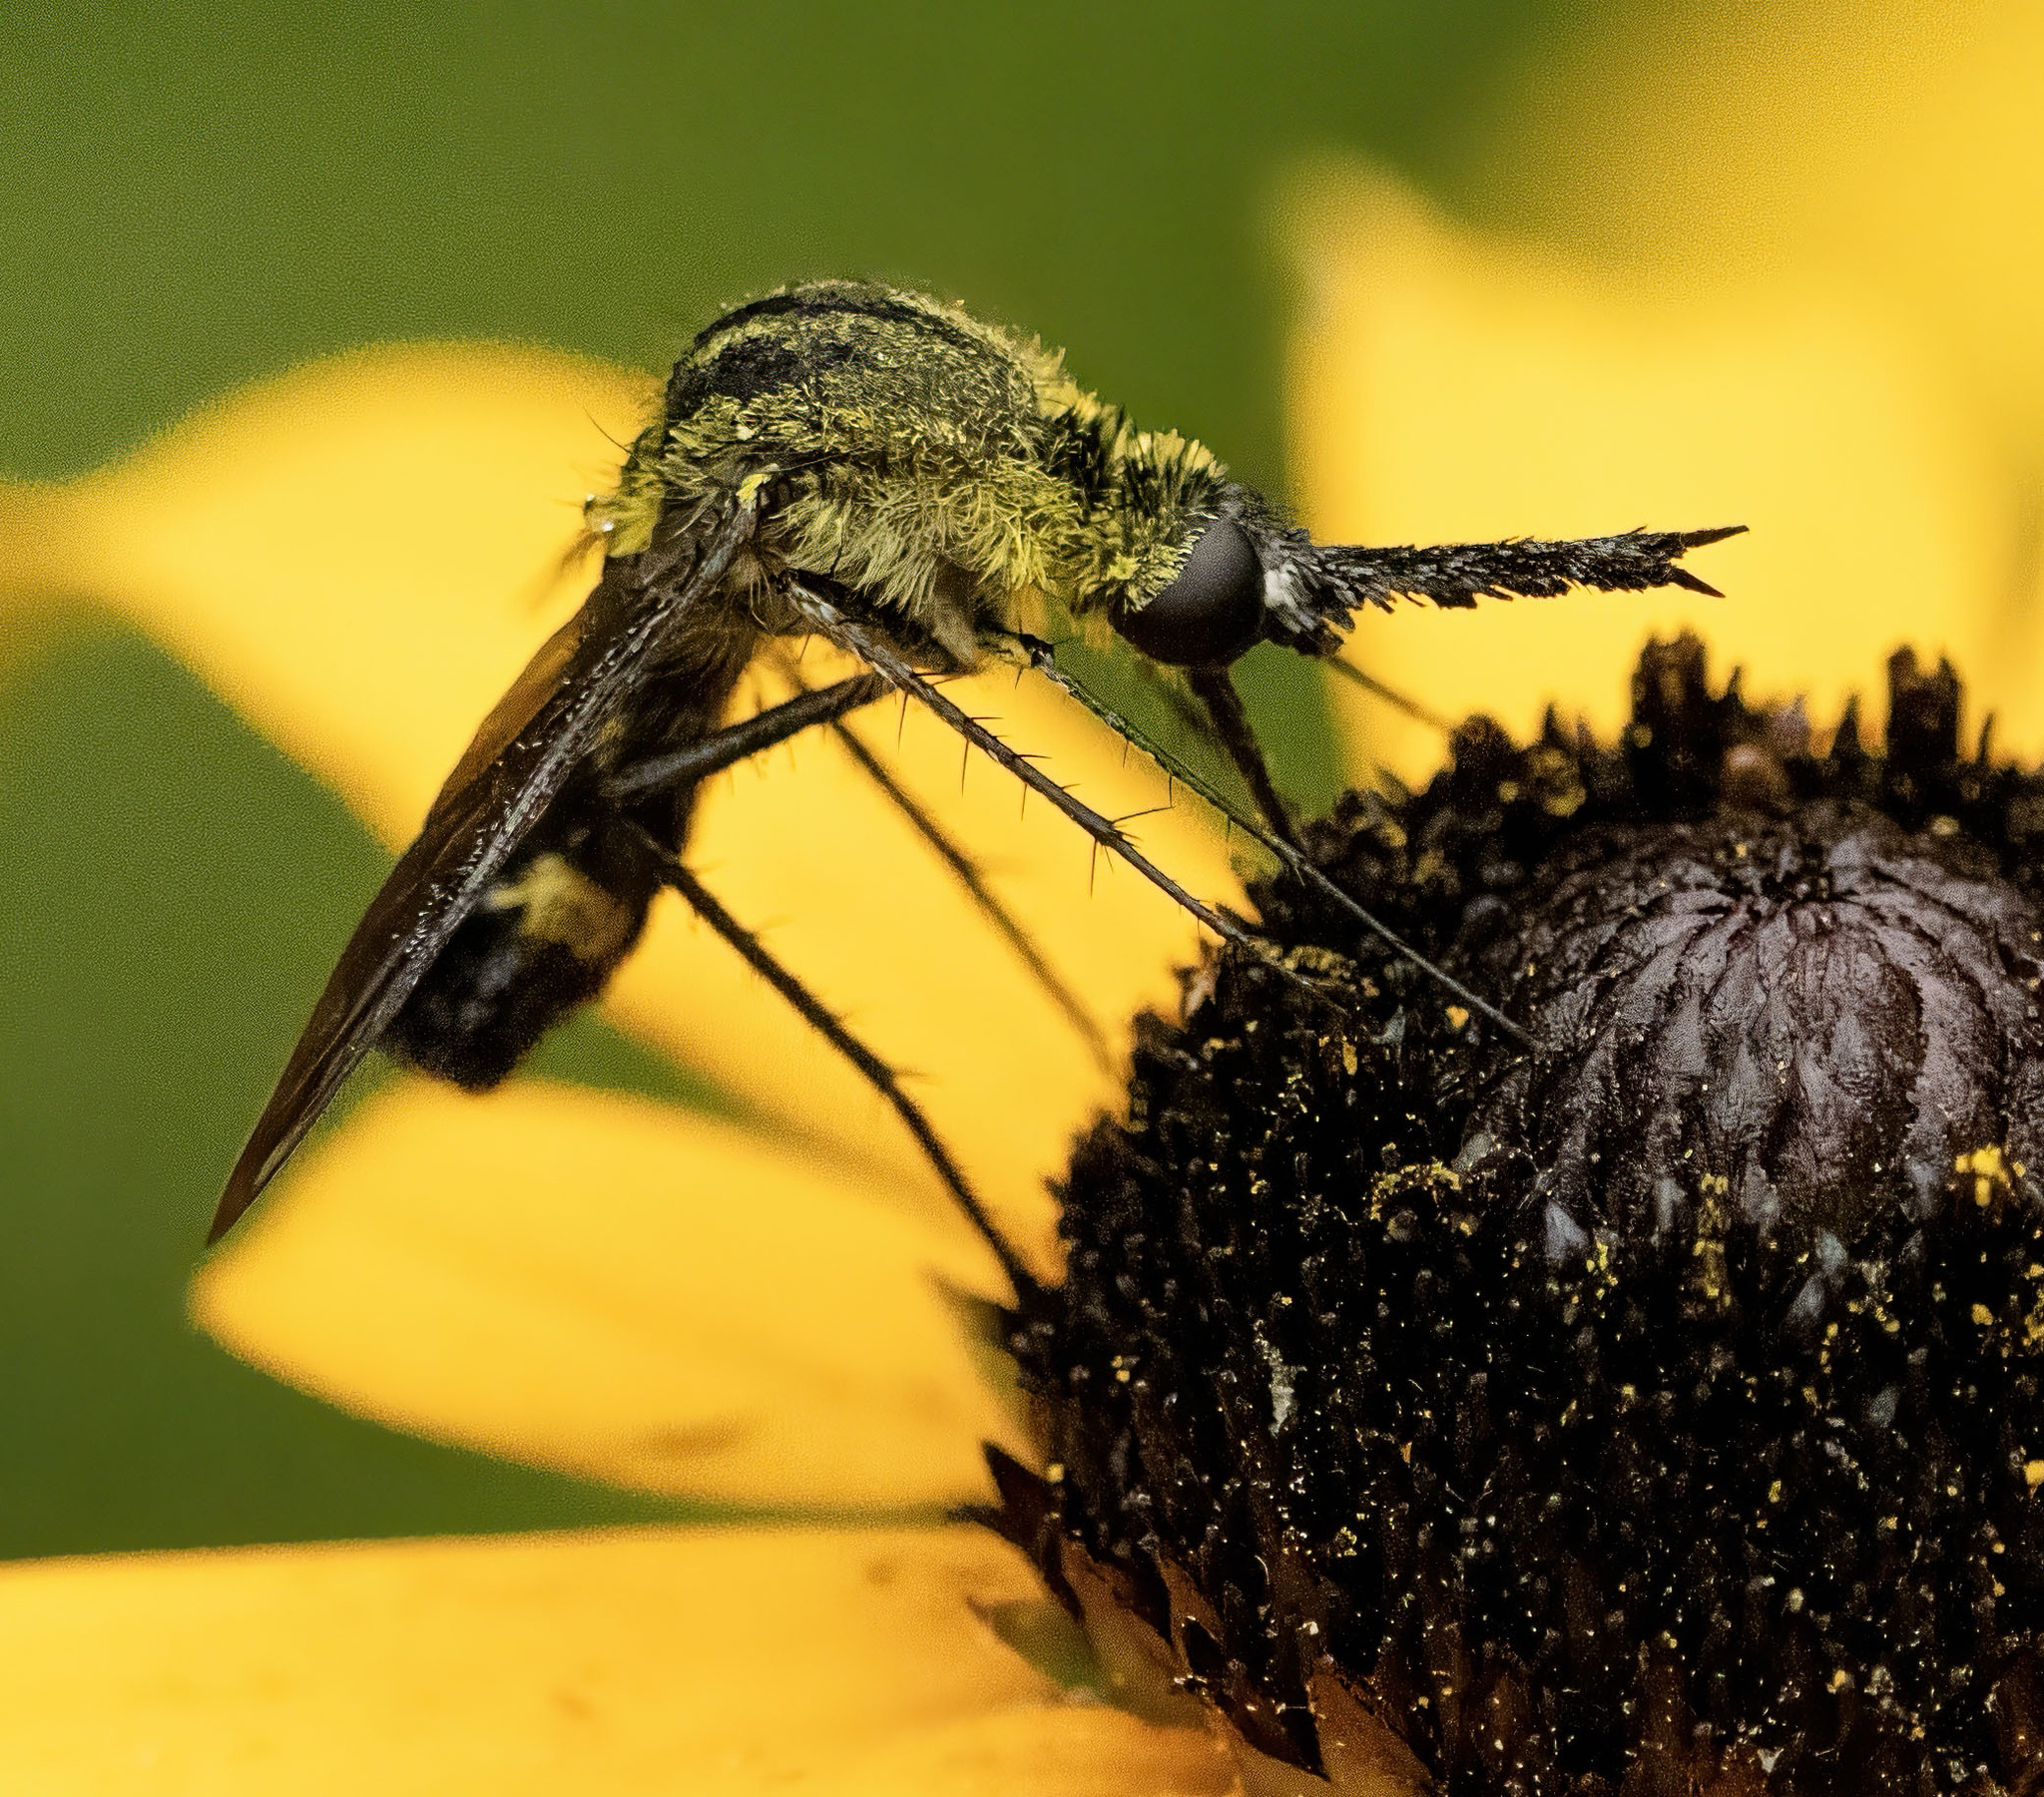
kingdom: Animalia
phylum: Arthropoda
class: Insecta
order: Diptera
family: Bombyliidae
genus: Lepidophora
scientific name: Lepidophora lepidocera
